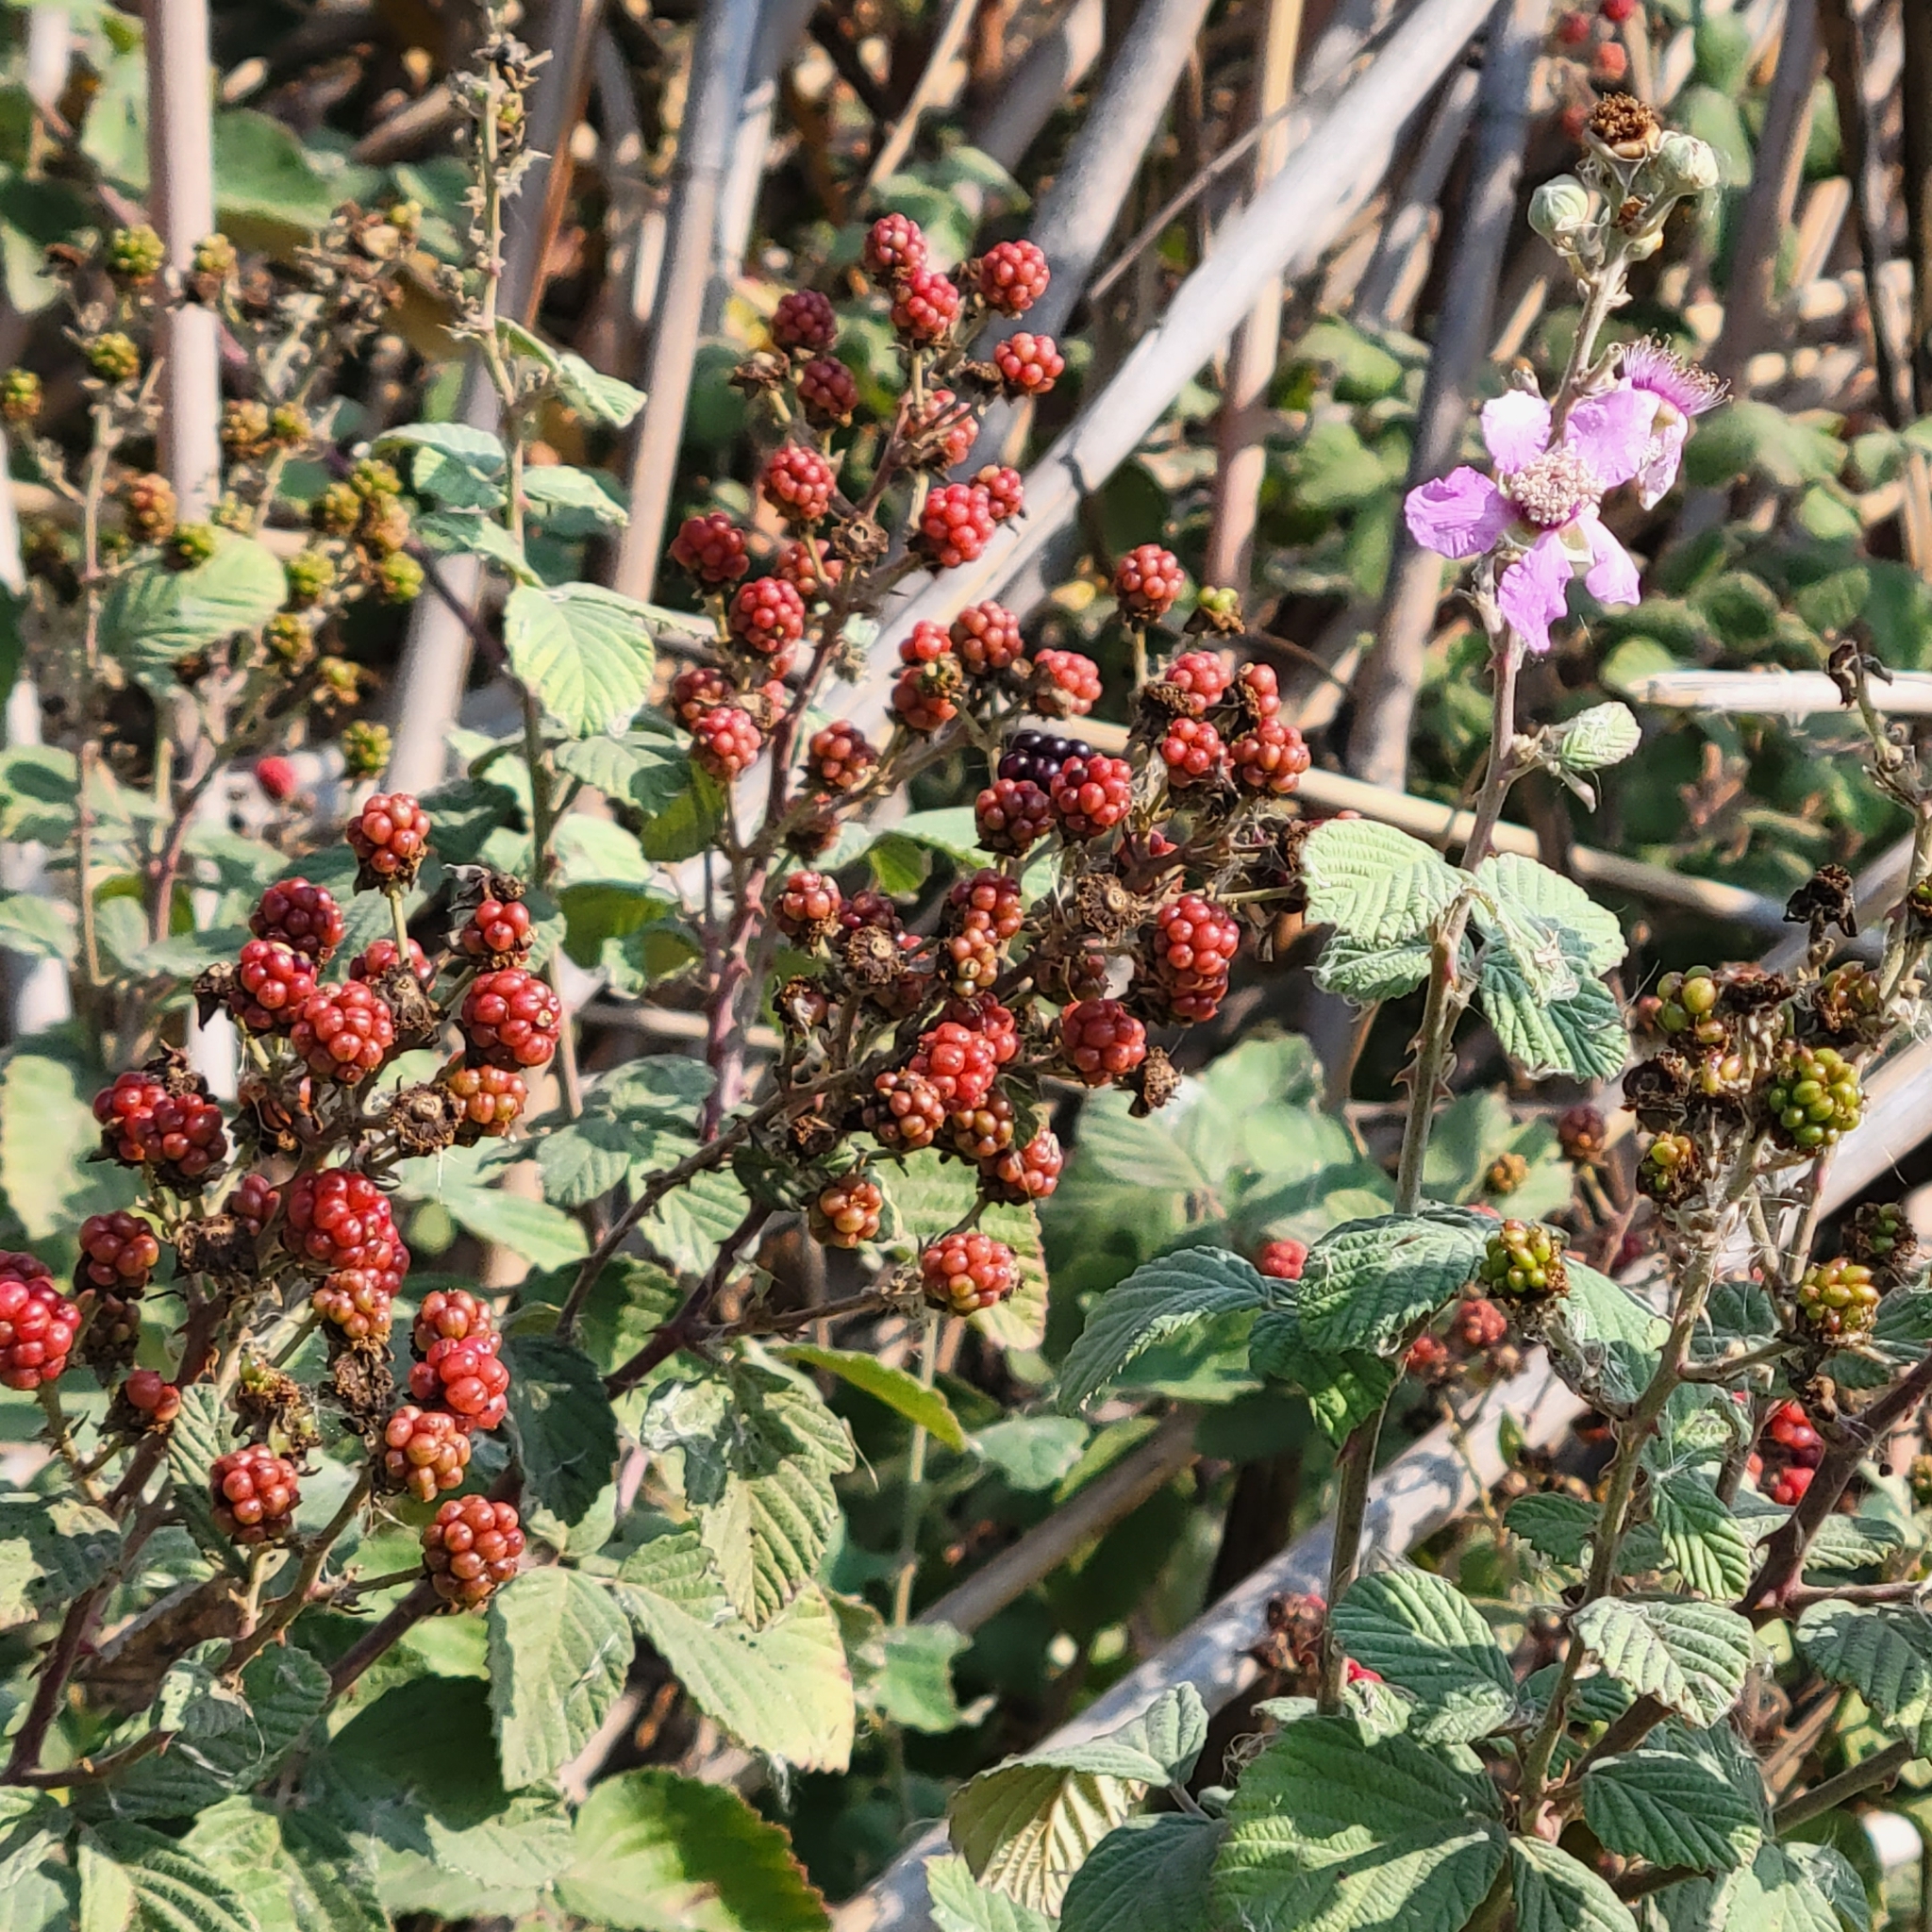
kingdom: Plantae
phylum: Tracheophyta
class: Magnoliopsida
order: Rosales
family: Rosaceae
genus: Rubus
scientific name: Rubus sanctus
